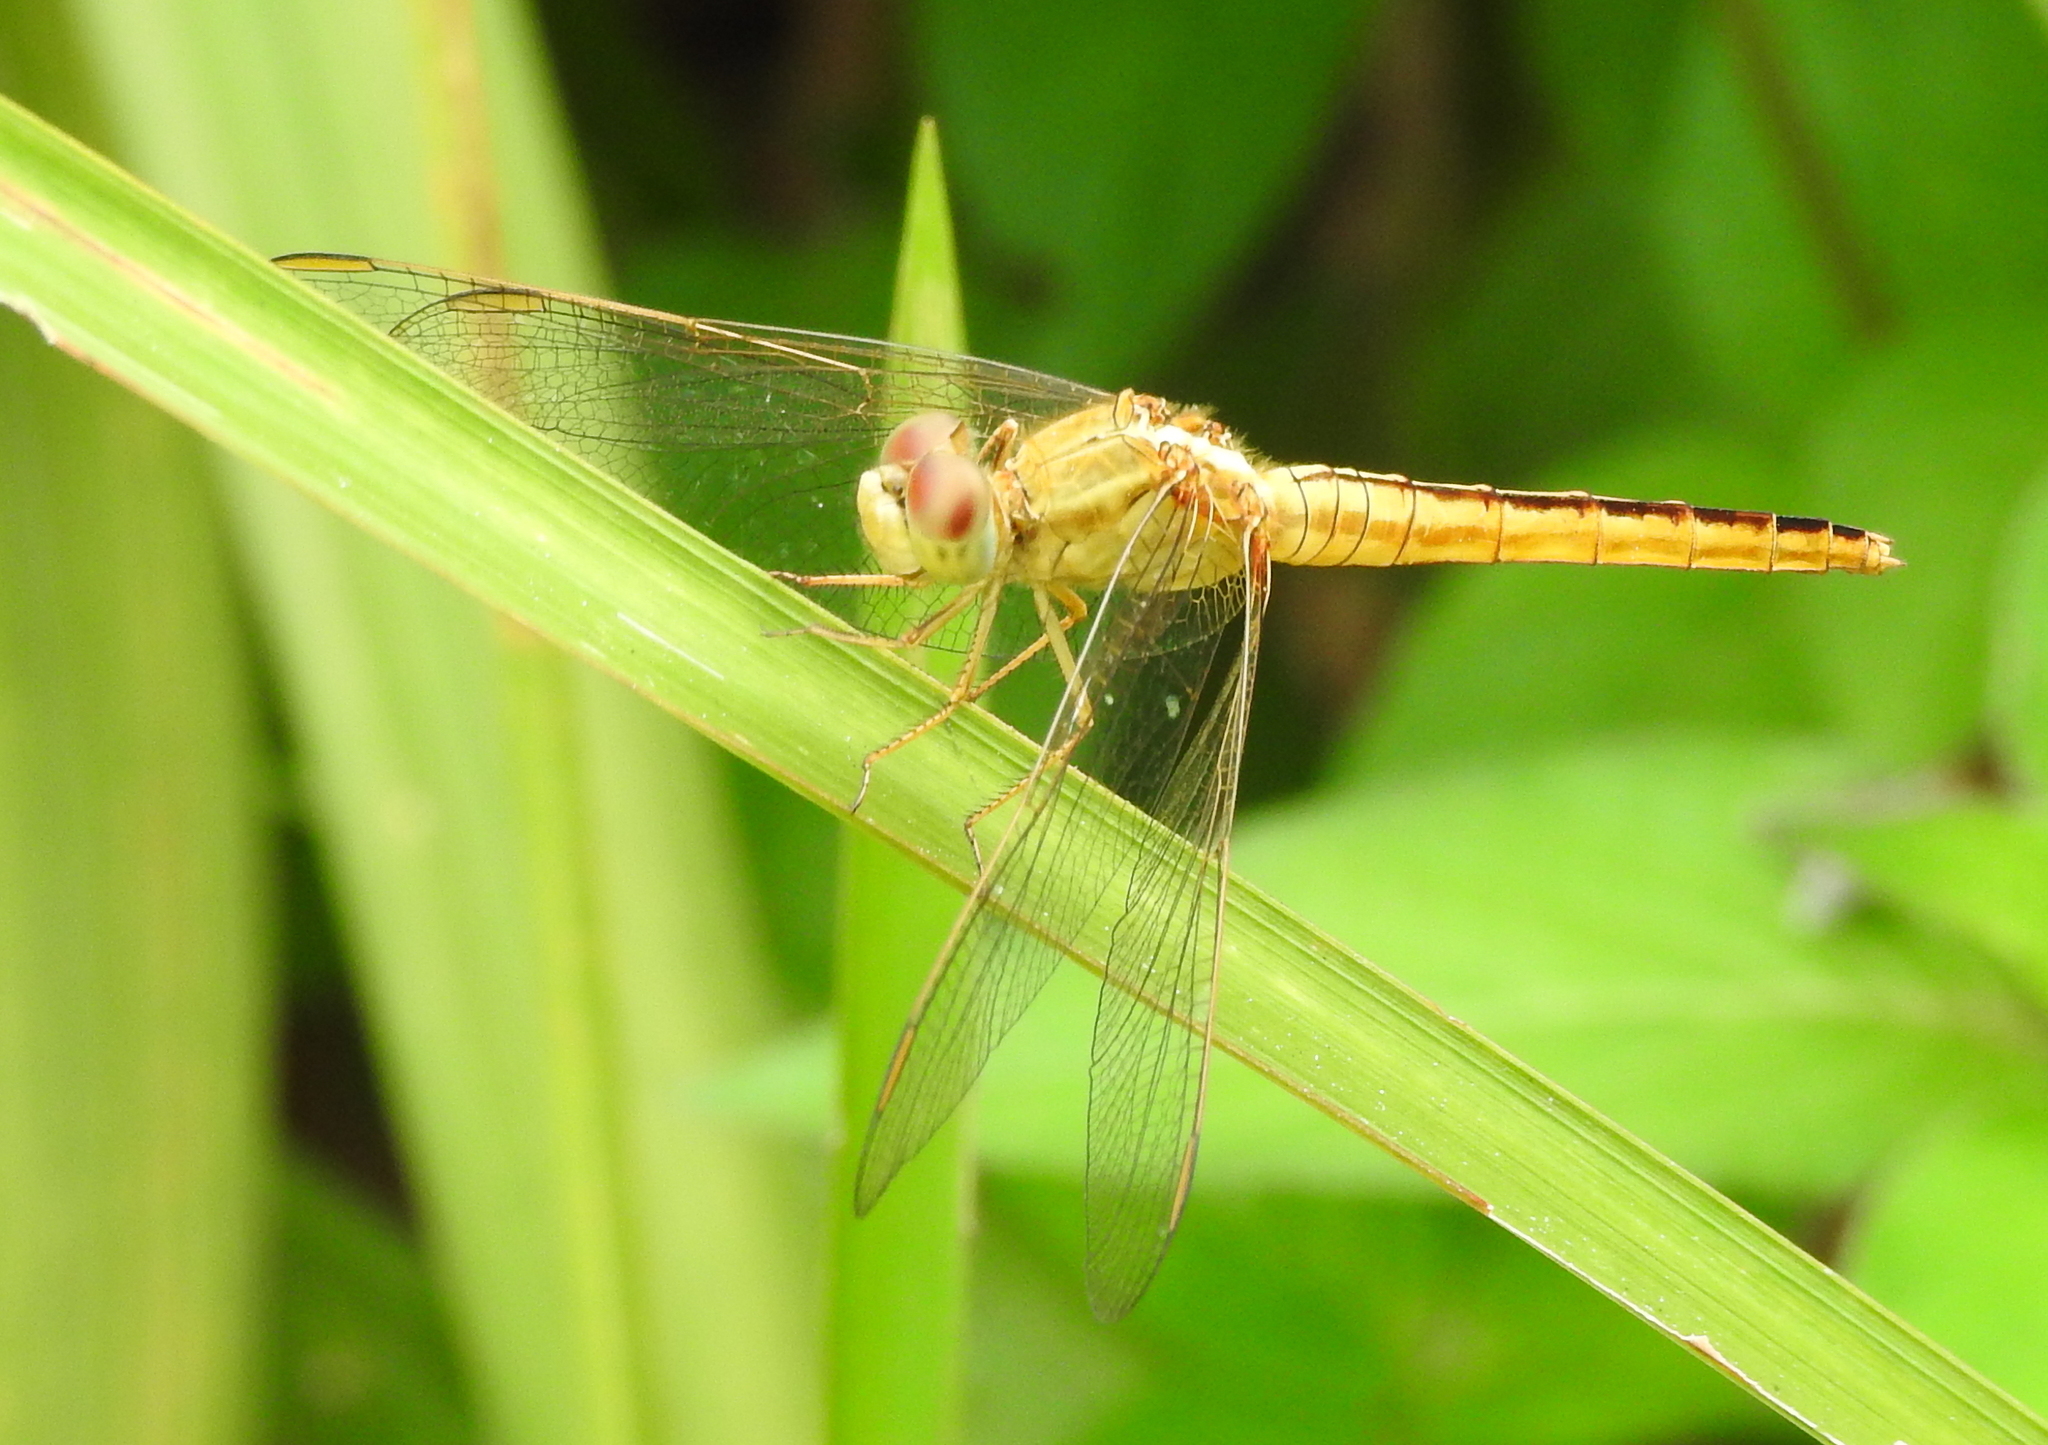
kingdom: Animalia
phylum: Arthropoda
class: Insecta
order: Odonata
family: Libellulidae
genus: Crocothemis
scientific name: Crocothemis servilia
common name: Scarlet skimmer
